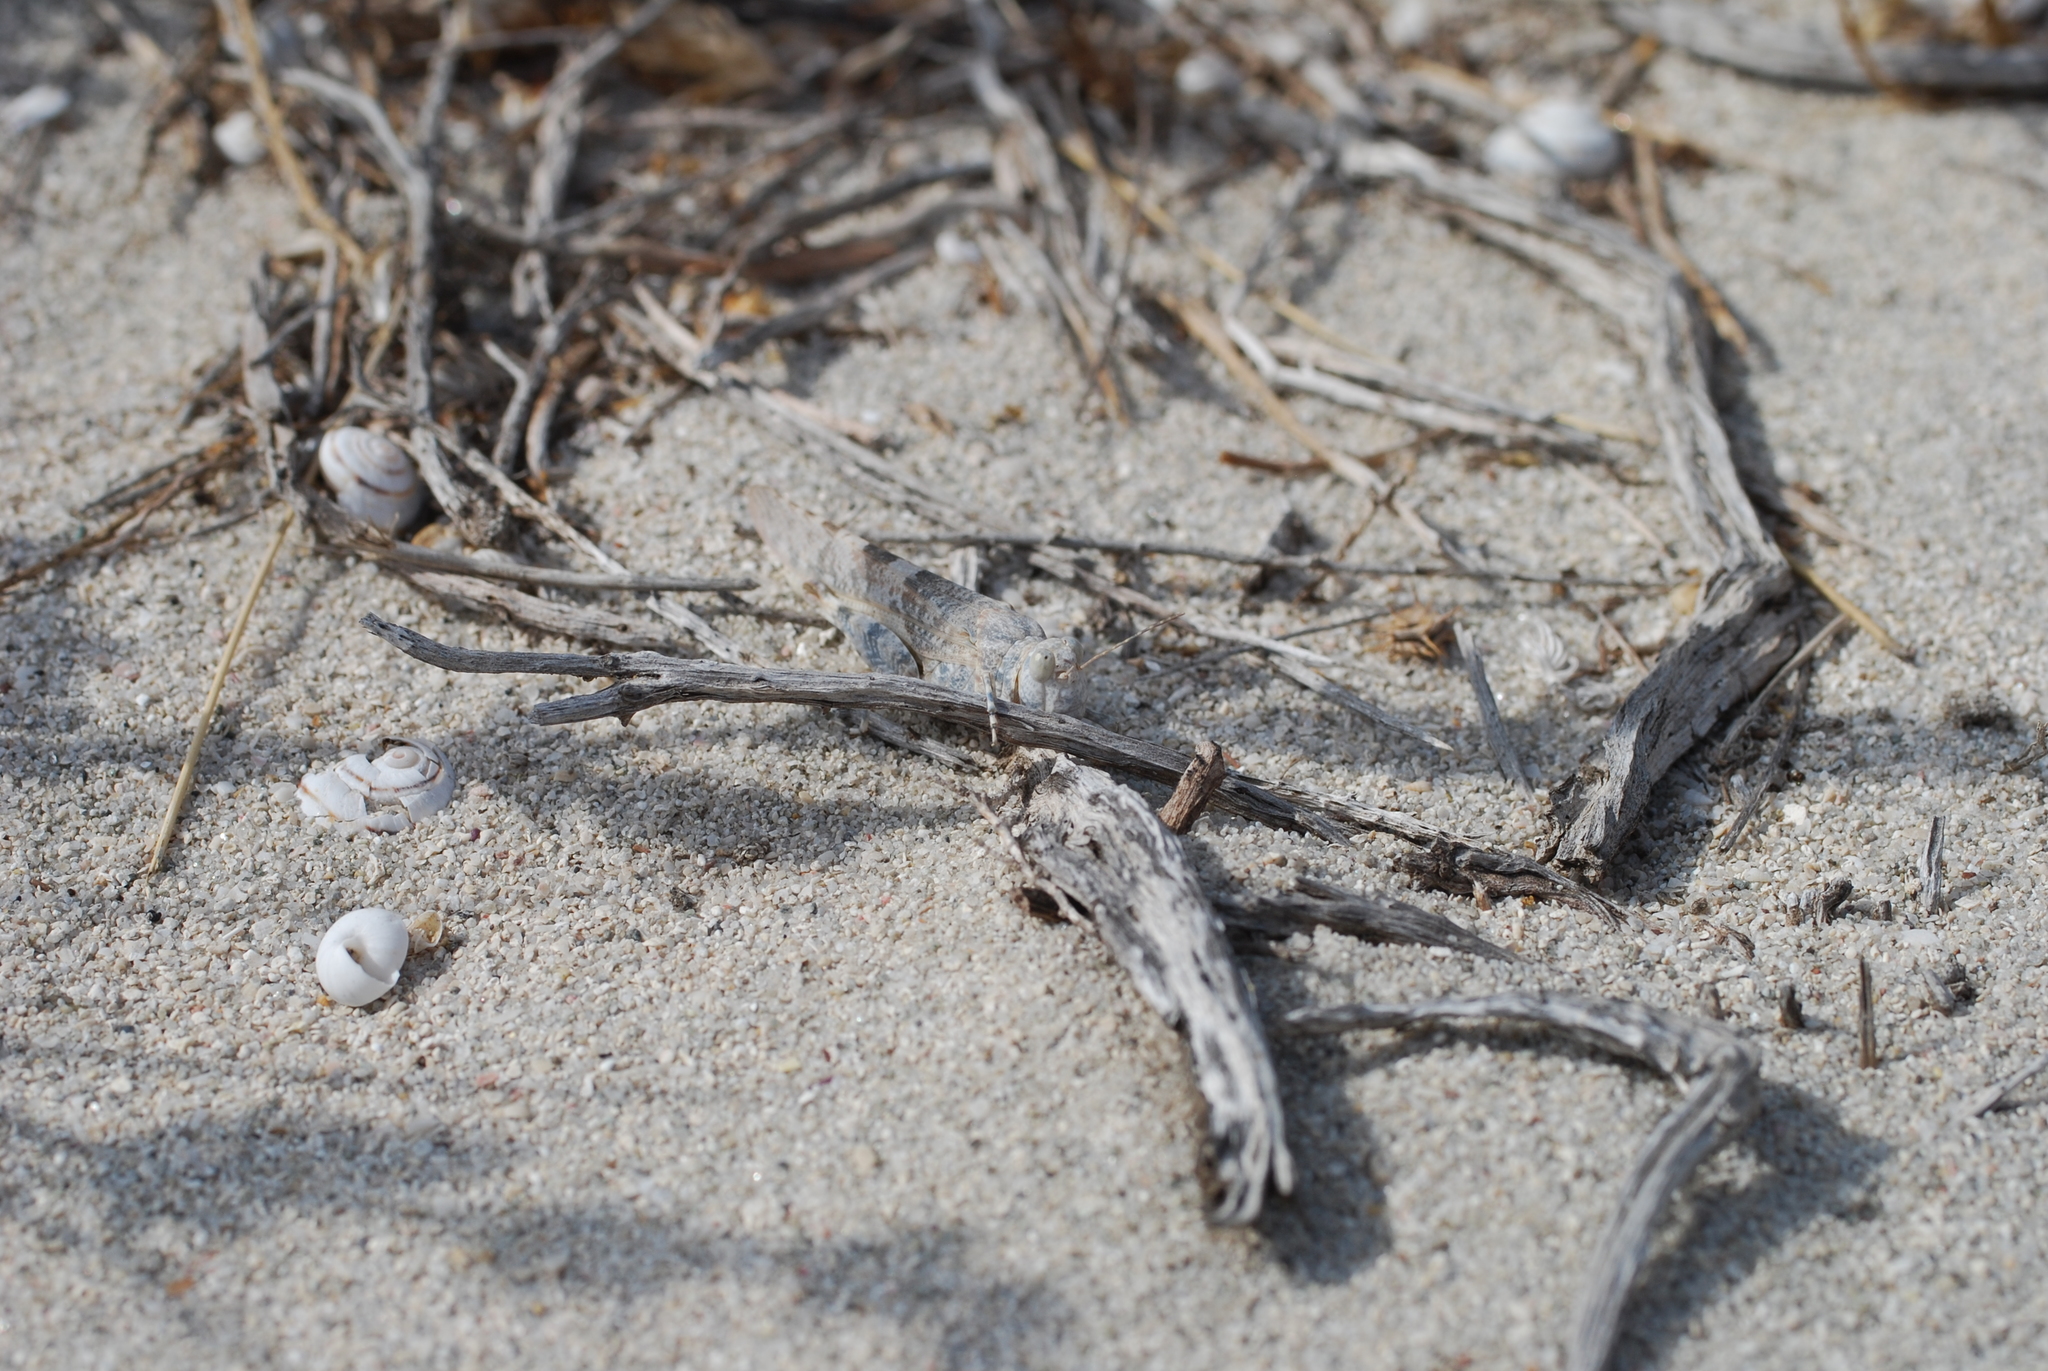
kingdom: Animalia
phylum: Arthropoda
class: Insecta
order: Orthoptera
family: Acrididae
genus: Sphingonotus
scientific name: Sphingonotus corsicus
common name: Corsican sand grasshopper
